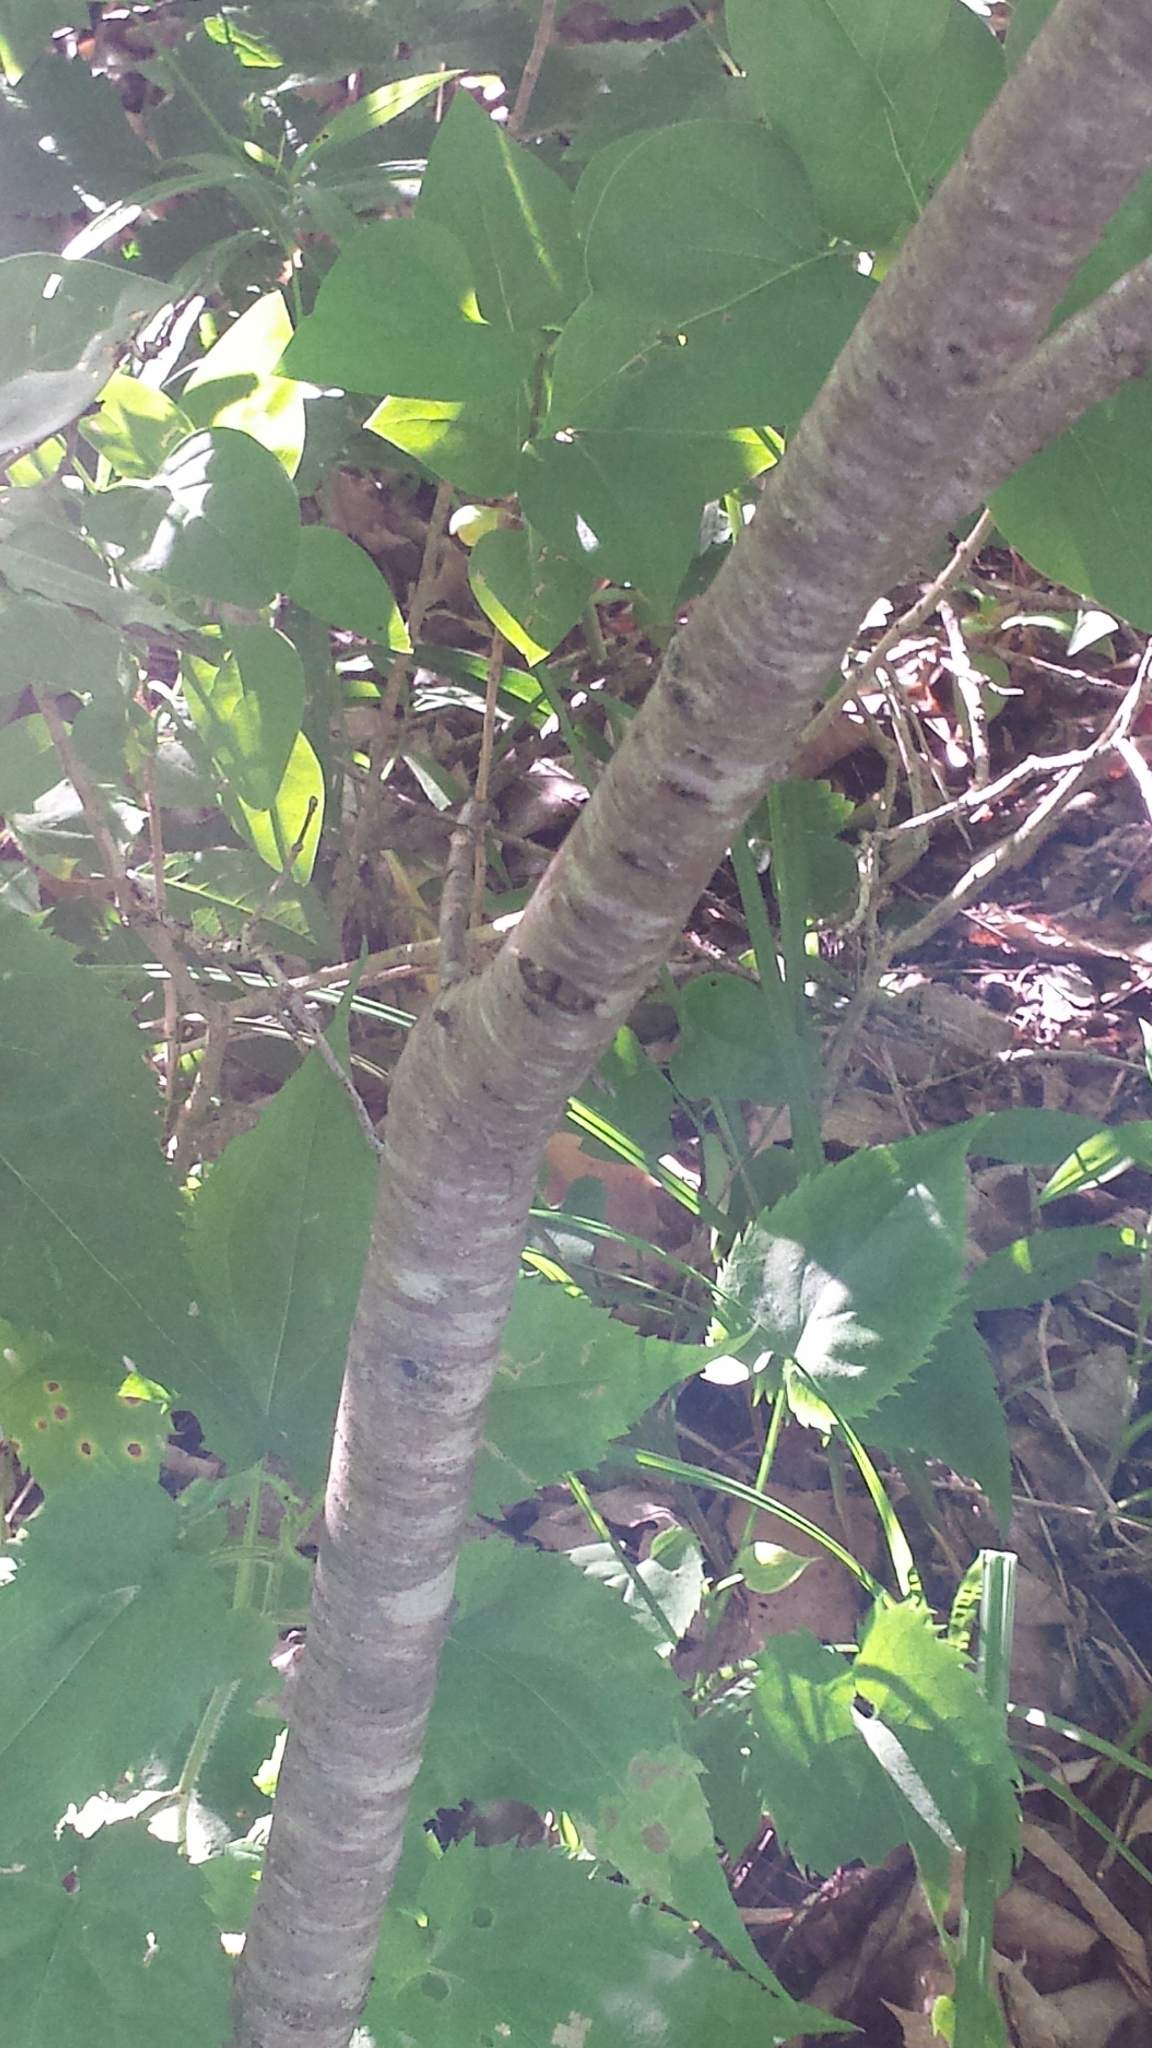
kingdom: Plantae
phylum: Tracheophyta
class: Magnoliopsida
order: Rosales
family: Rhamnaceae
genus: Rhamnus
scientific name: Rhamnus cathartica
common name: Common buckthorn
